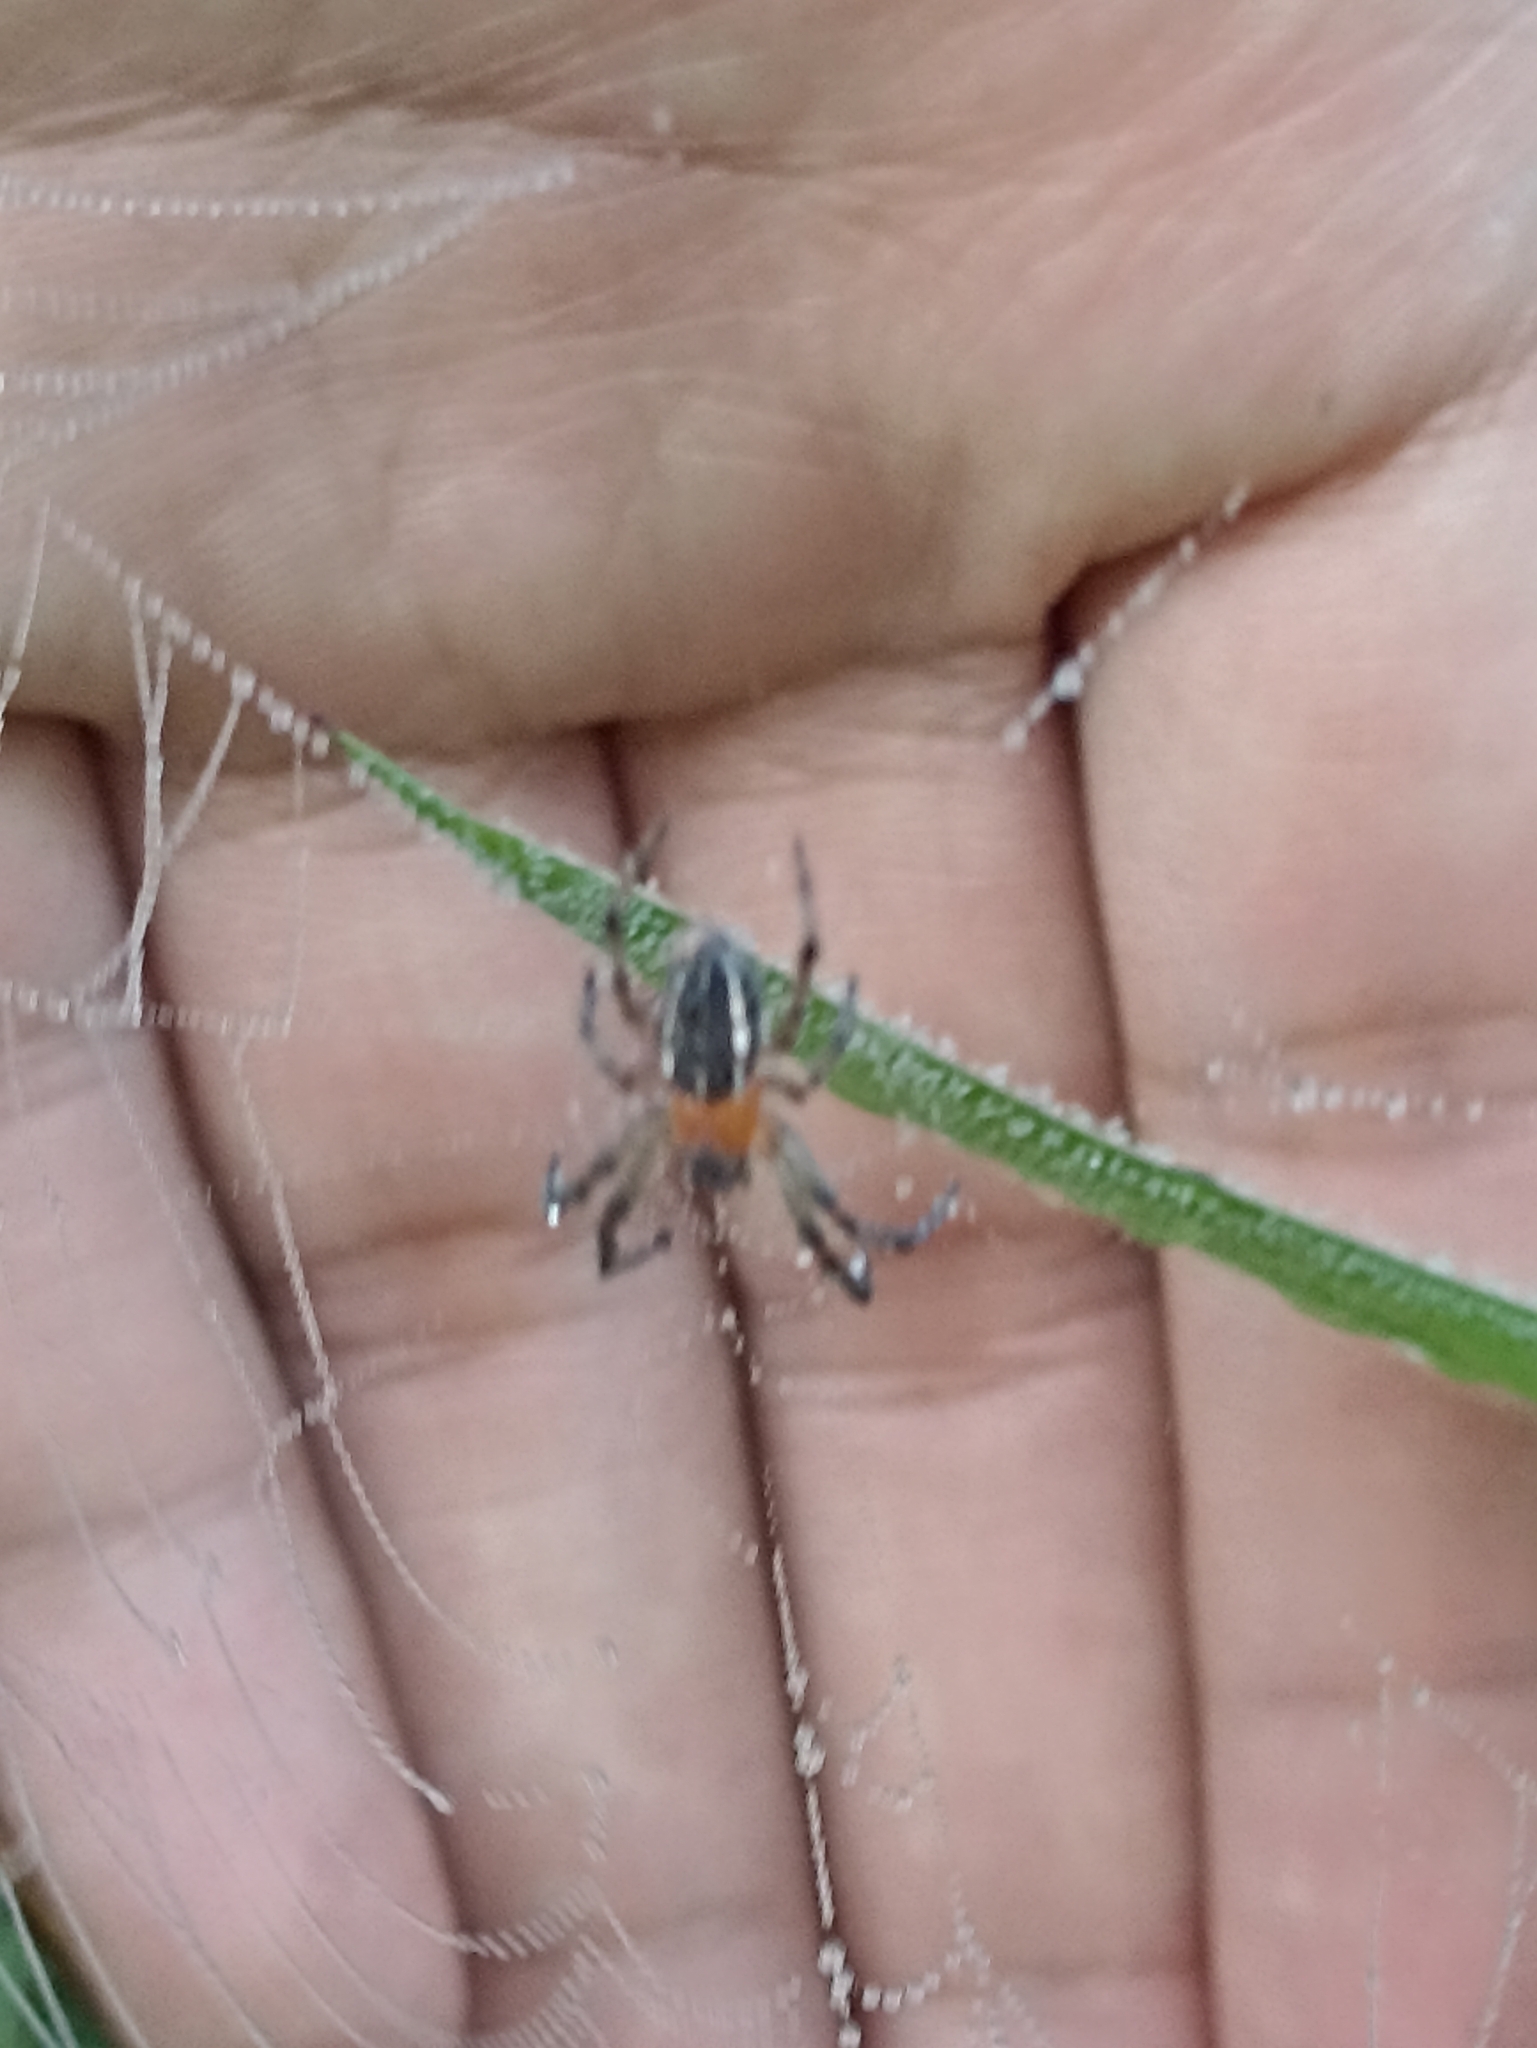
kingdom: Animalia
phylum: Arthropoda
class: Arachnida
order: Araneae
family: Araneidae
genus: Alpaida
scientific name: Alpaida veniliae
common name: Orb weavers
